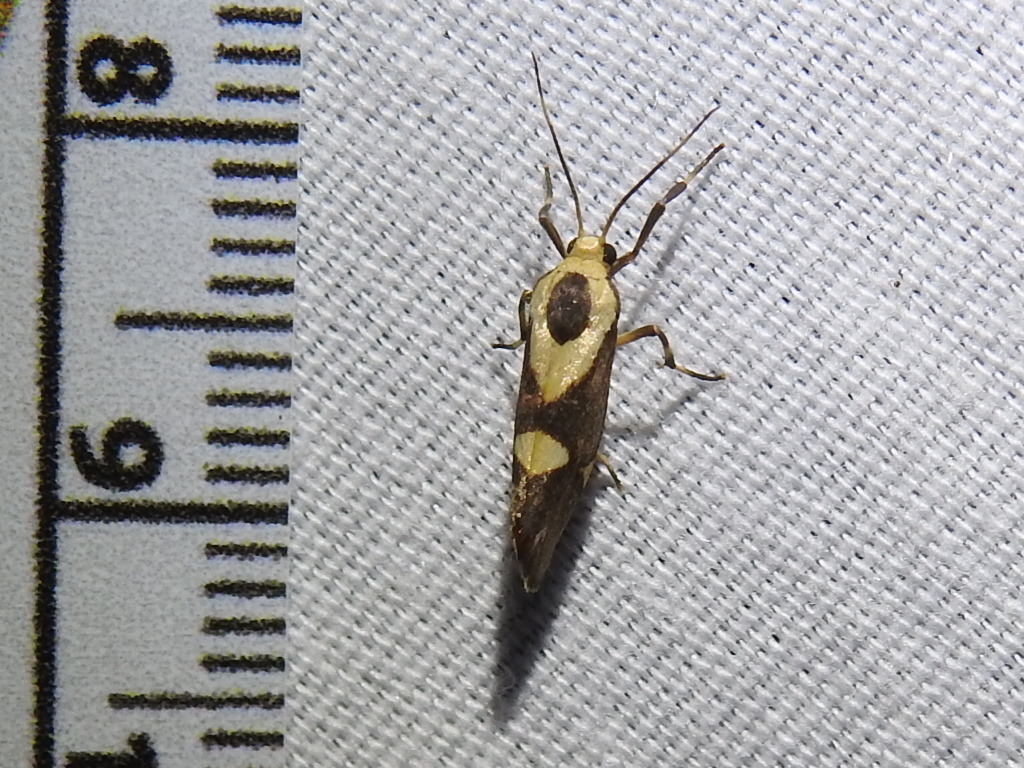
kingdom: Animalia
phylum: Arthropoda
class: Insecta
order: Lepidoptera
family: Erebidae
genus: Cisthene
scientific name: Cisthene subrufa
